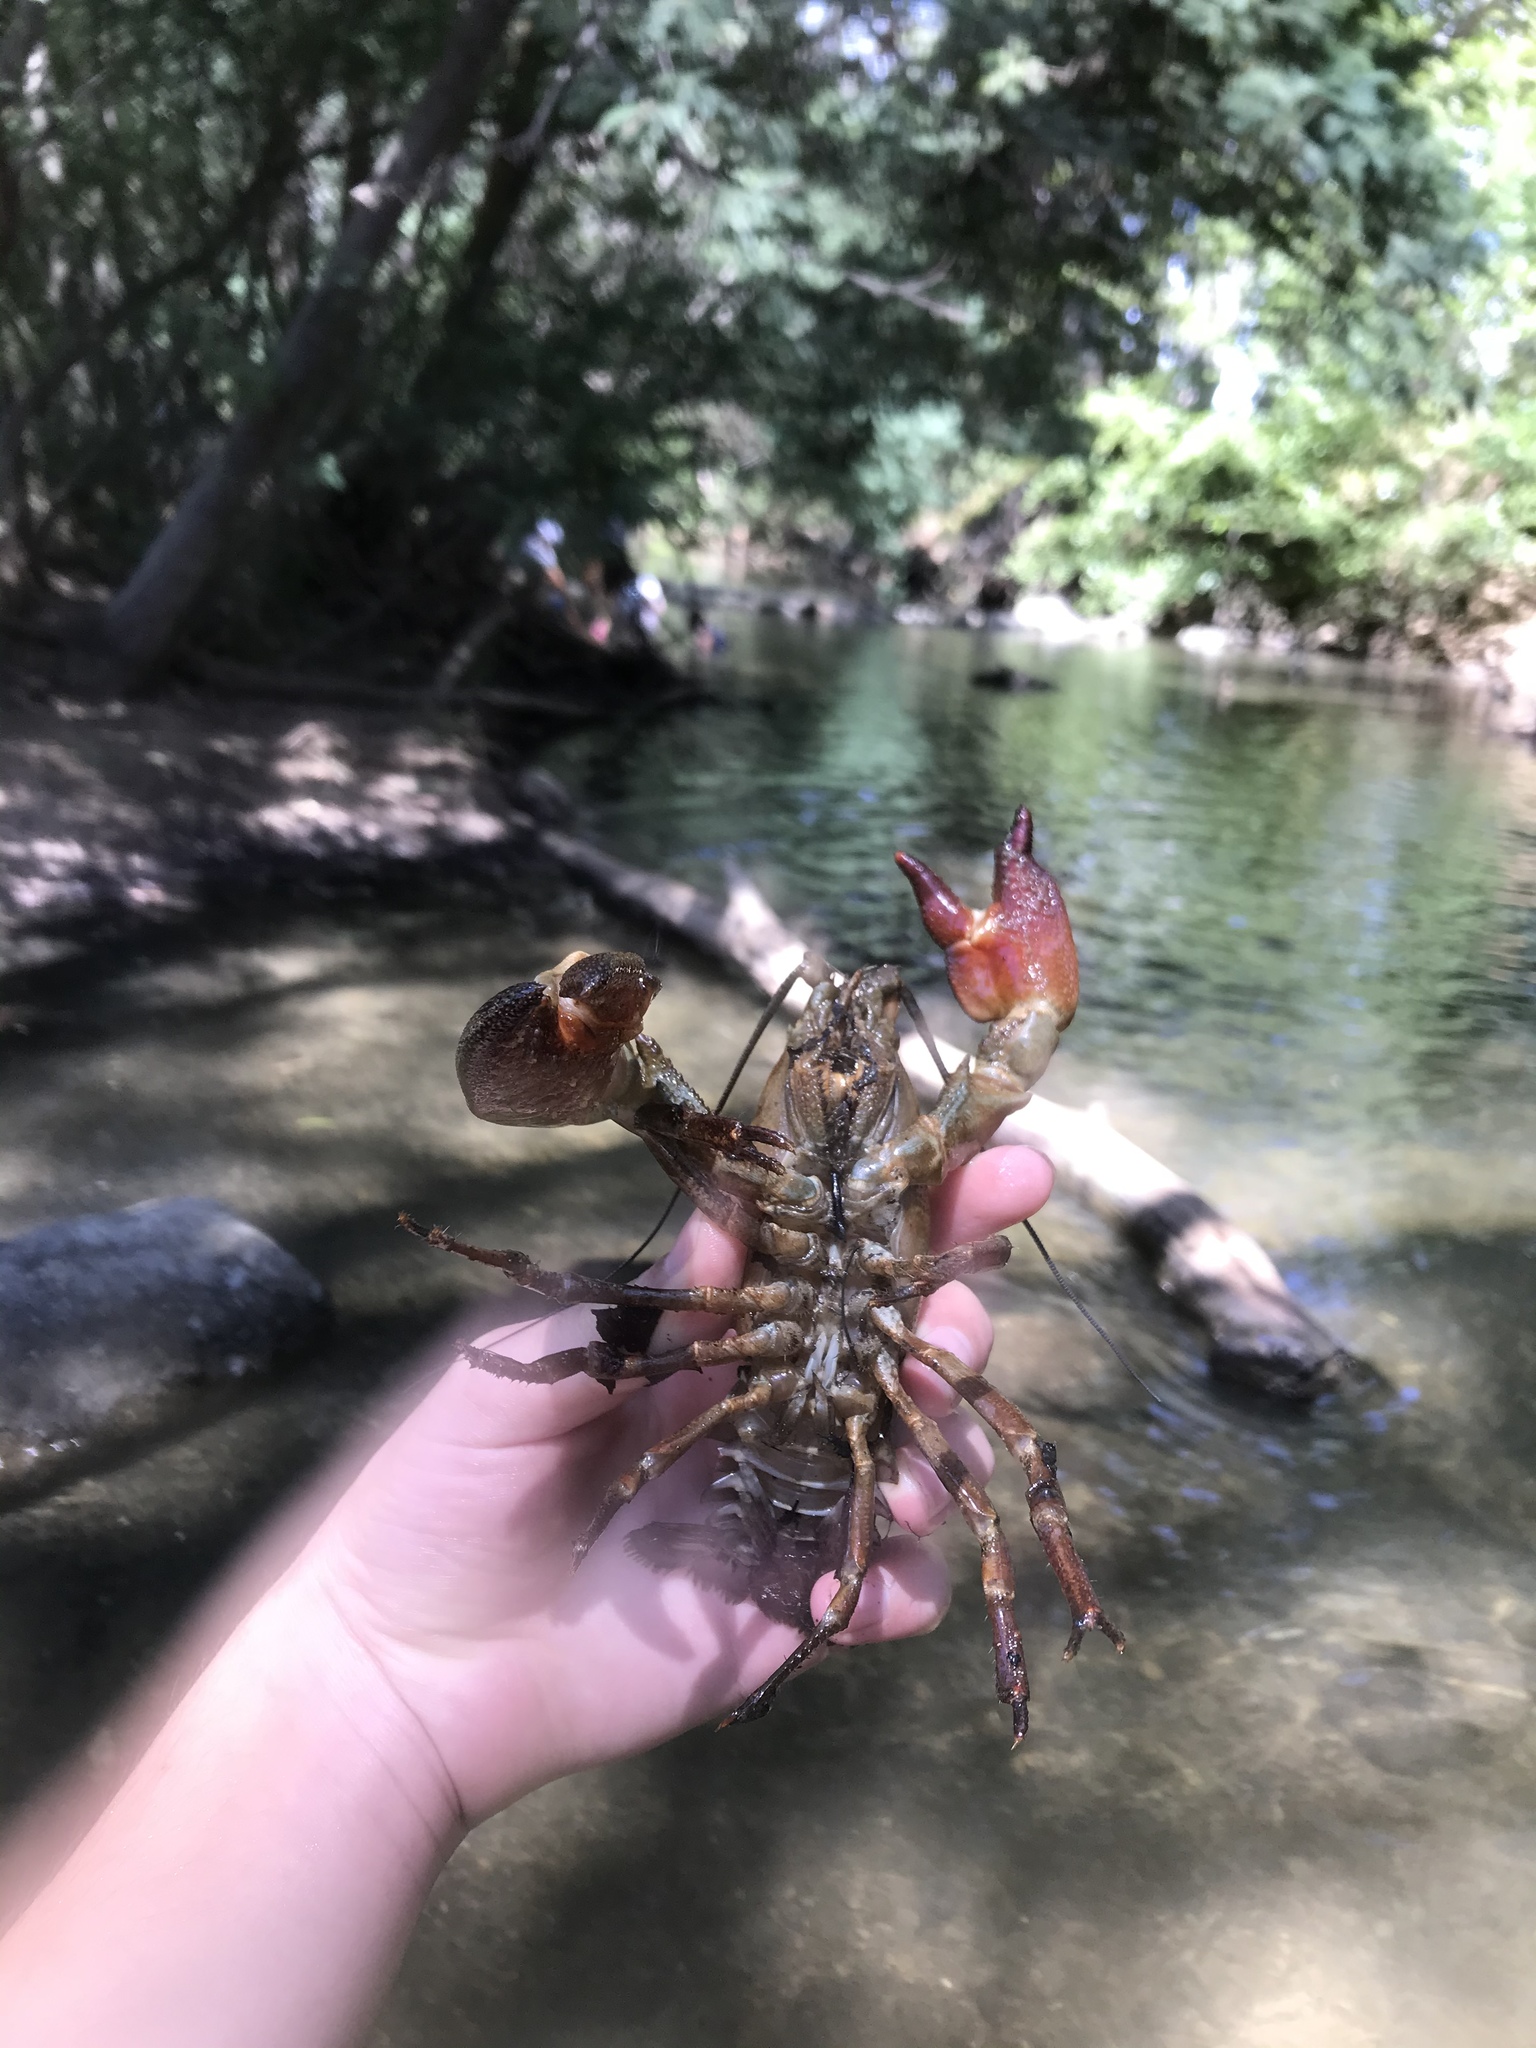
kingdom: Animalia
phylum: Arthropoda
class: Malacostraca
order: Decapoda
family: Astacidae
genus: Pacifastacus
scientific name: Pacifastacus leniusculus
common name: Signal crayfish
